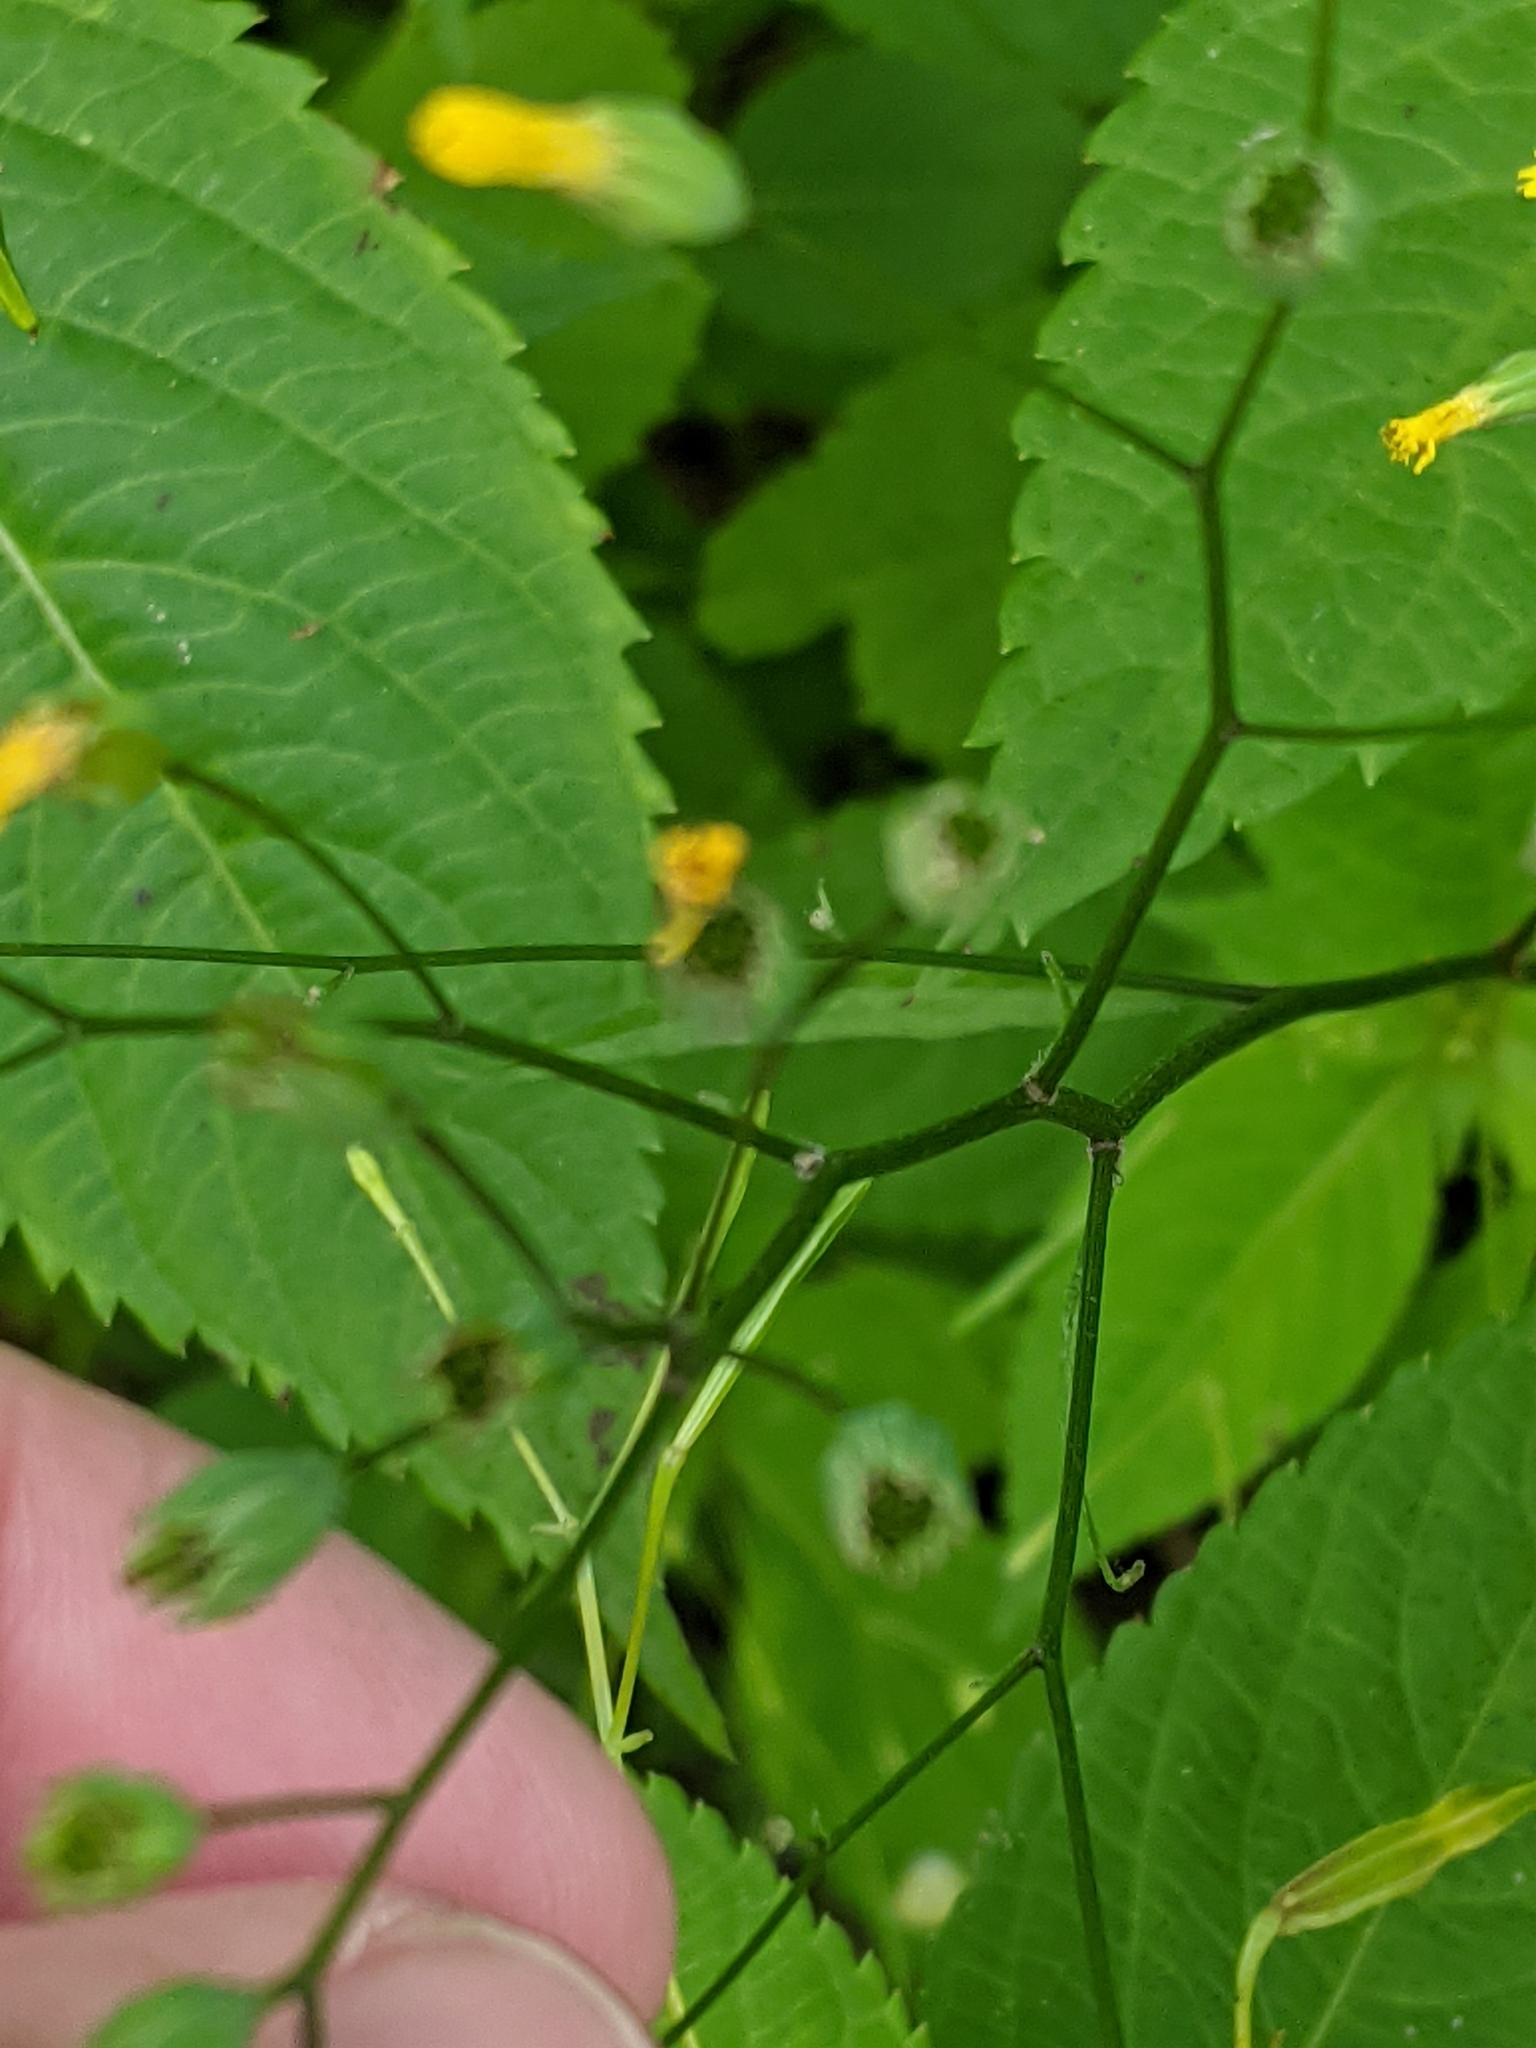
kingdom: Plantae
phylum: Tracheophyta
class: Magnoliopsida
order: Asterales
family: Asteraceae
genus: Lapsana
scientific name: Lapsana communis
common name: Nipplewort
